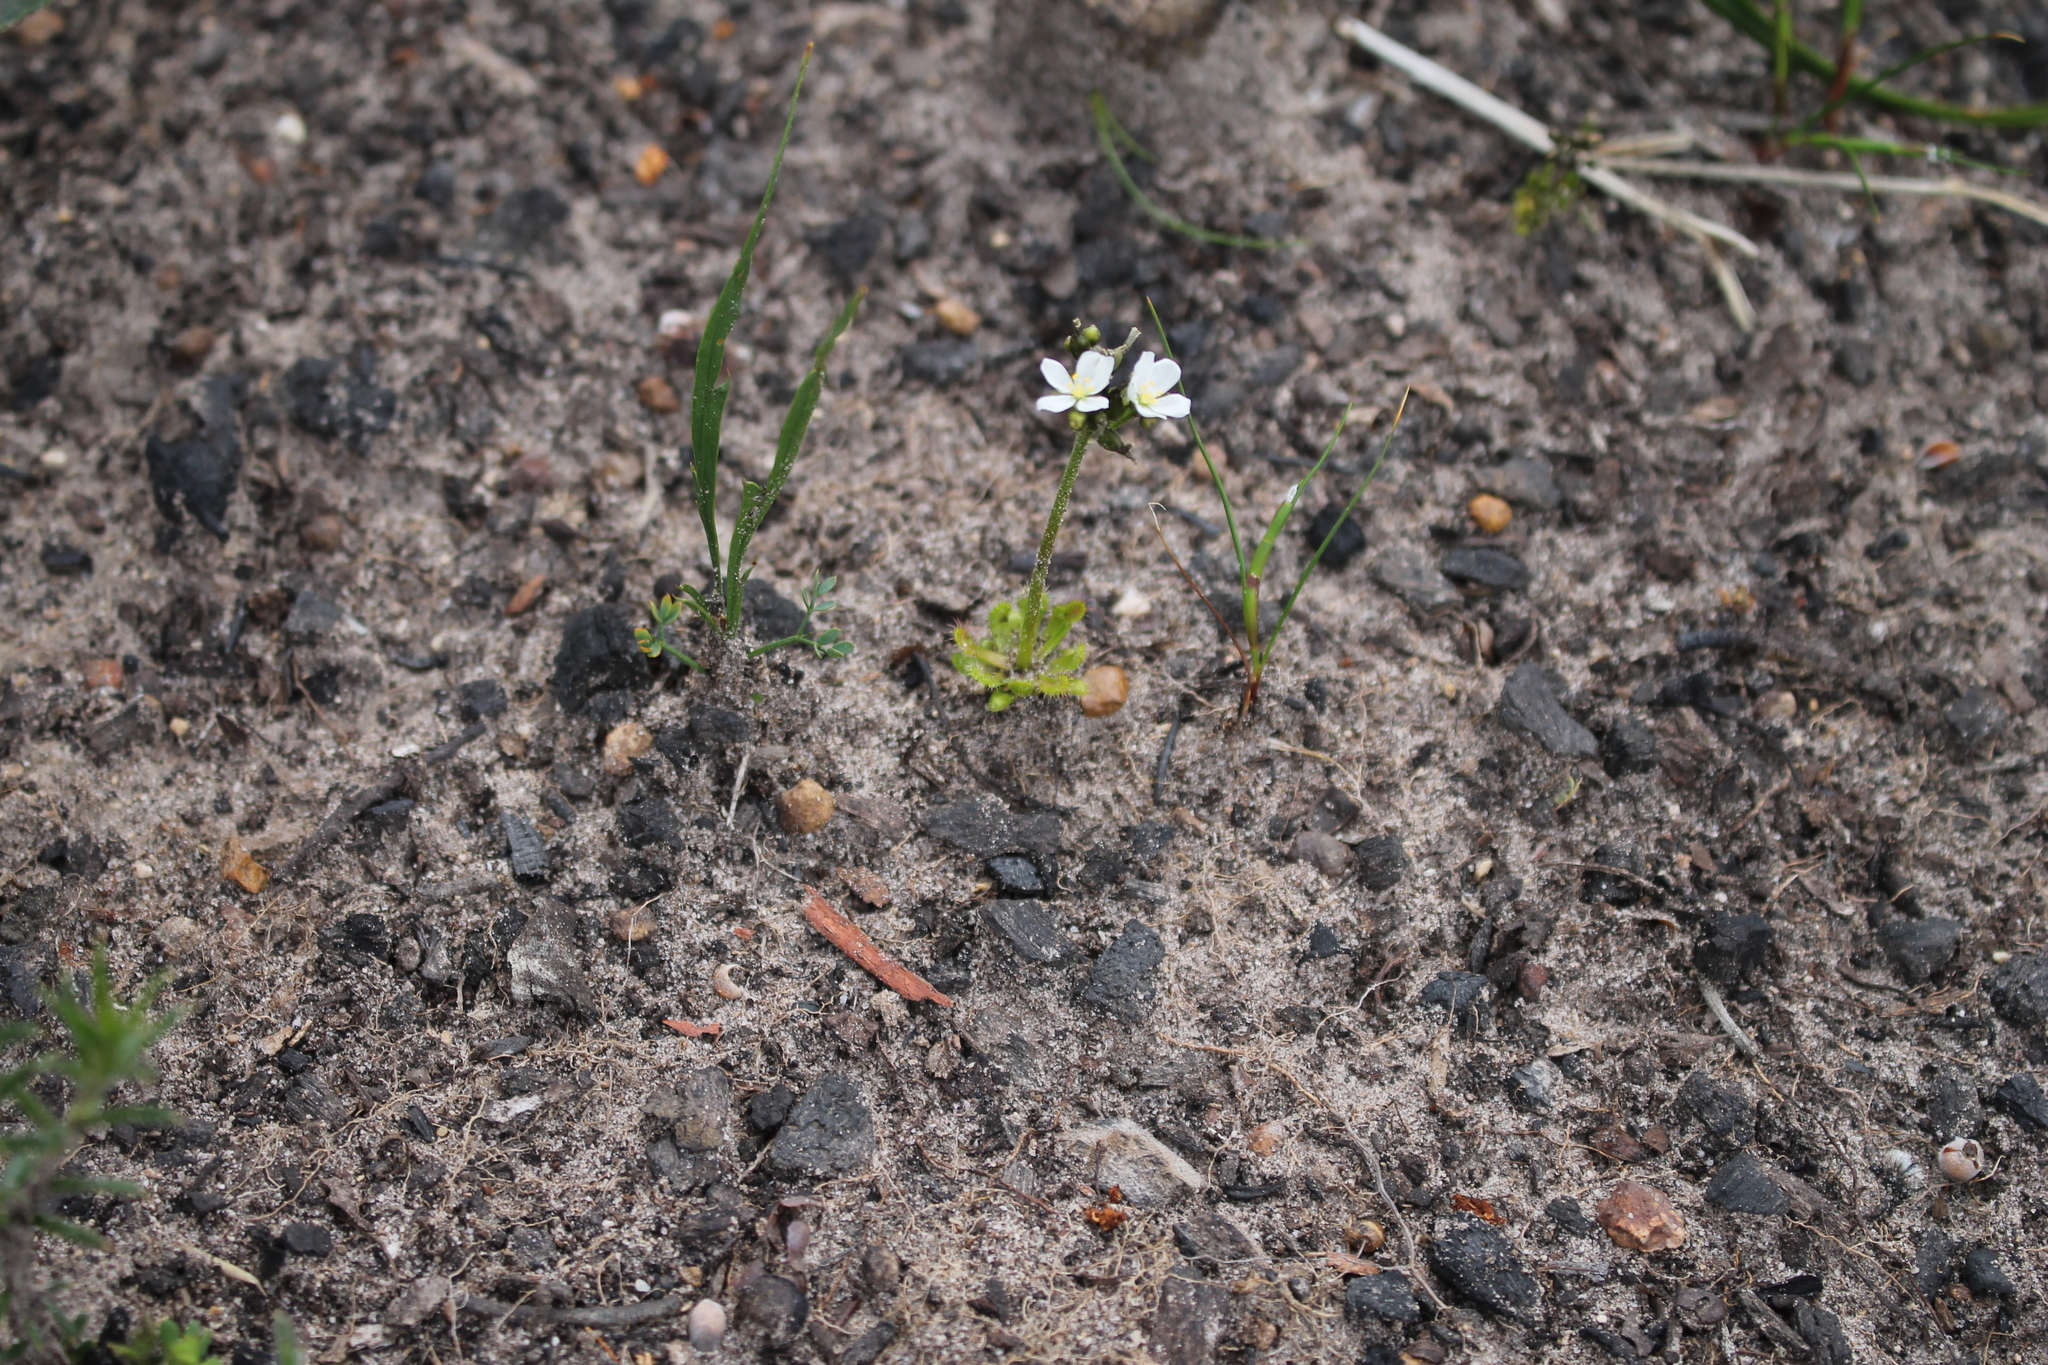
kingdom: Plantae
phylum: Tracheophyta
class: Magnoliopsida
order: Caryophyllales
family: Droseraceae
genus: Drosera
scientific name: Drosera stolonifera
